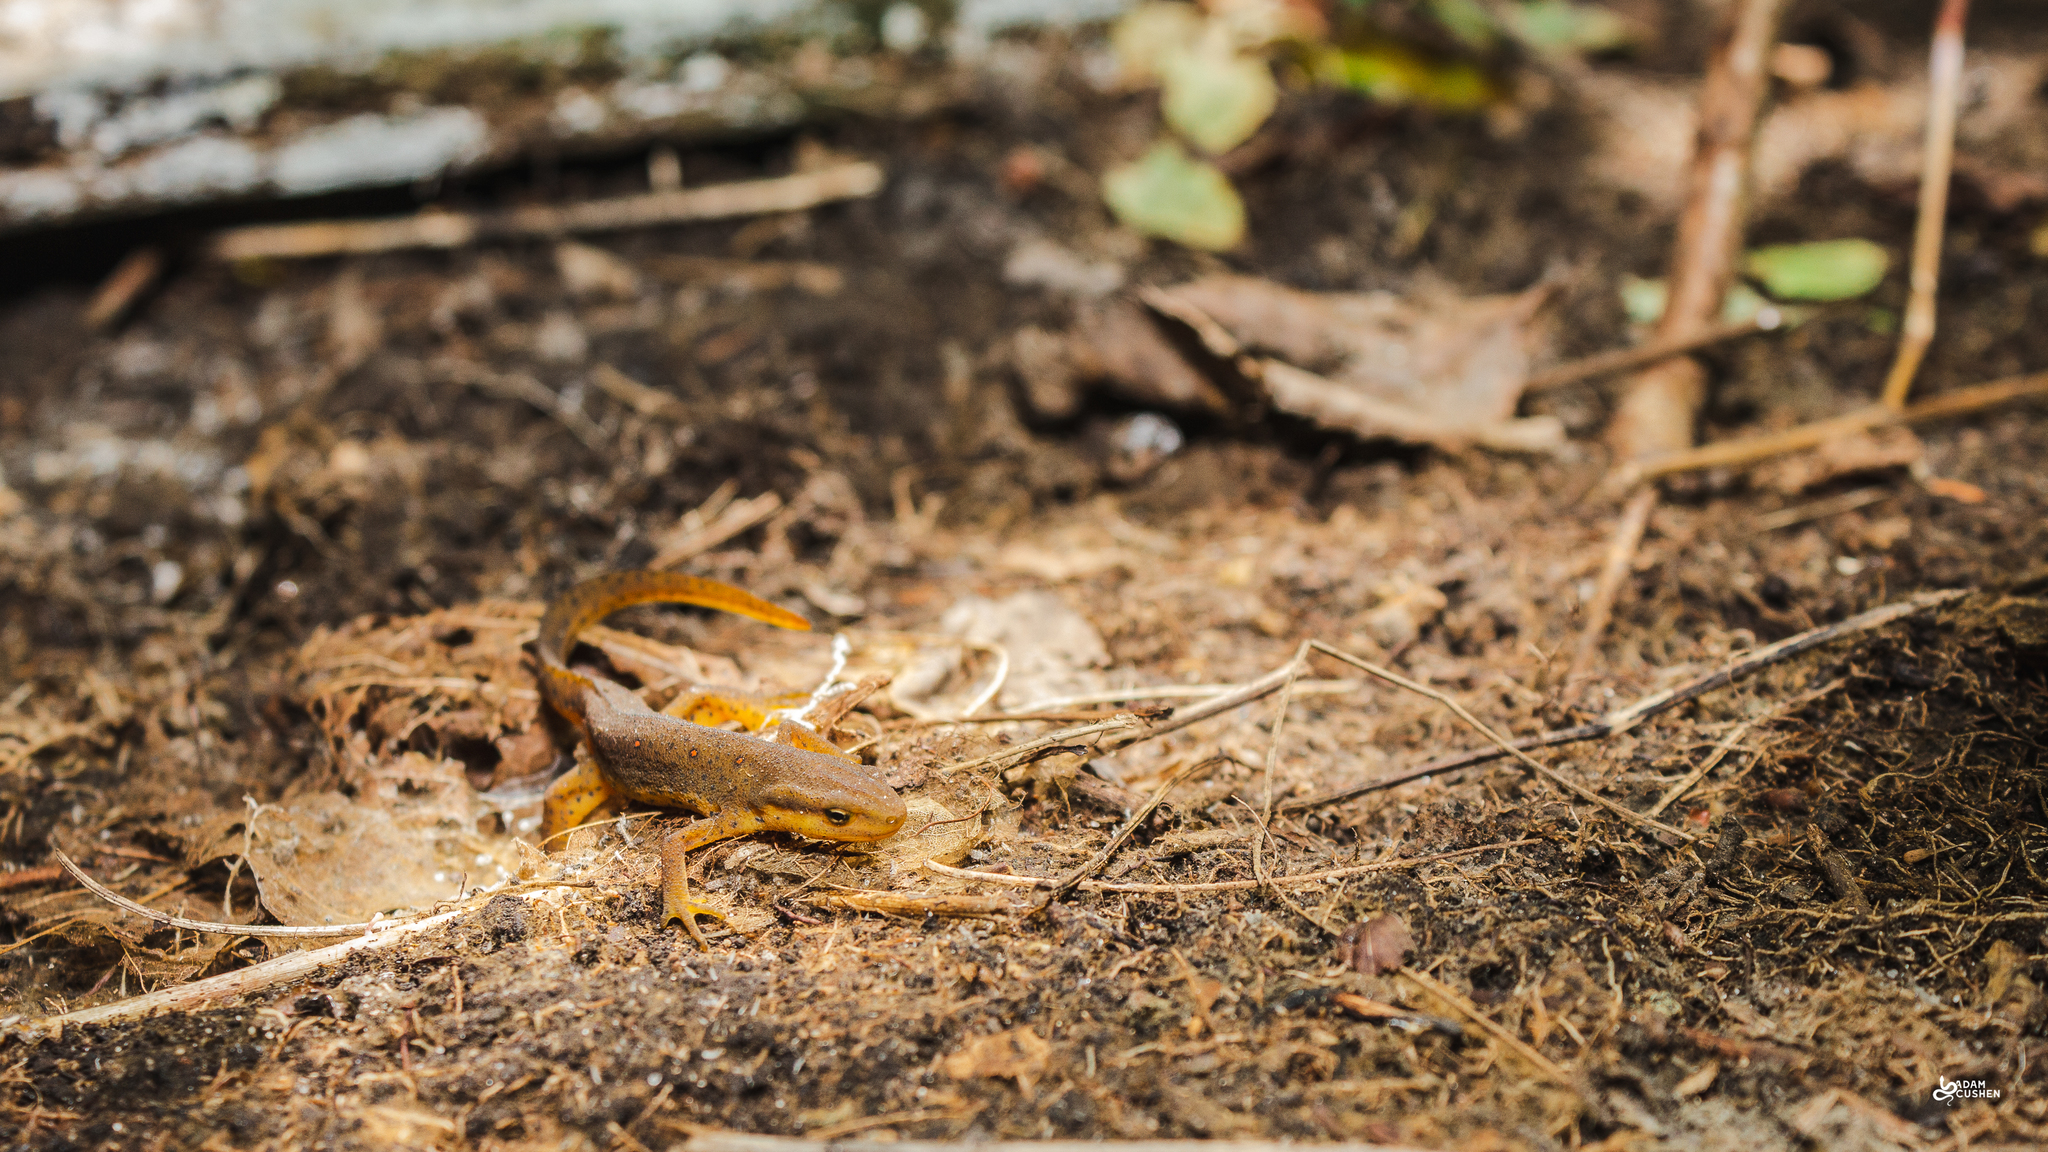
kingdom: Animalia
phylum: Chordata
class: Amphibia
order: Caudata
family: Salamandridae
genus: Notophthalmus
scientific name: Notophthalmus viridescens
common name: Eastern newt
